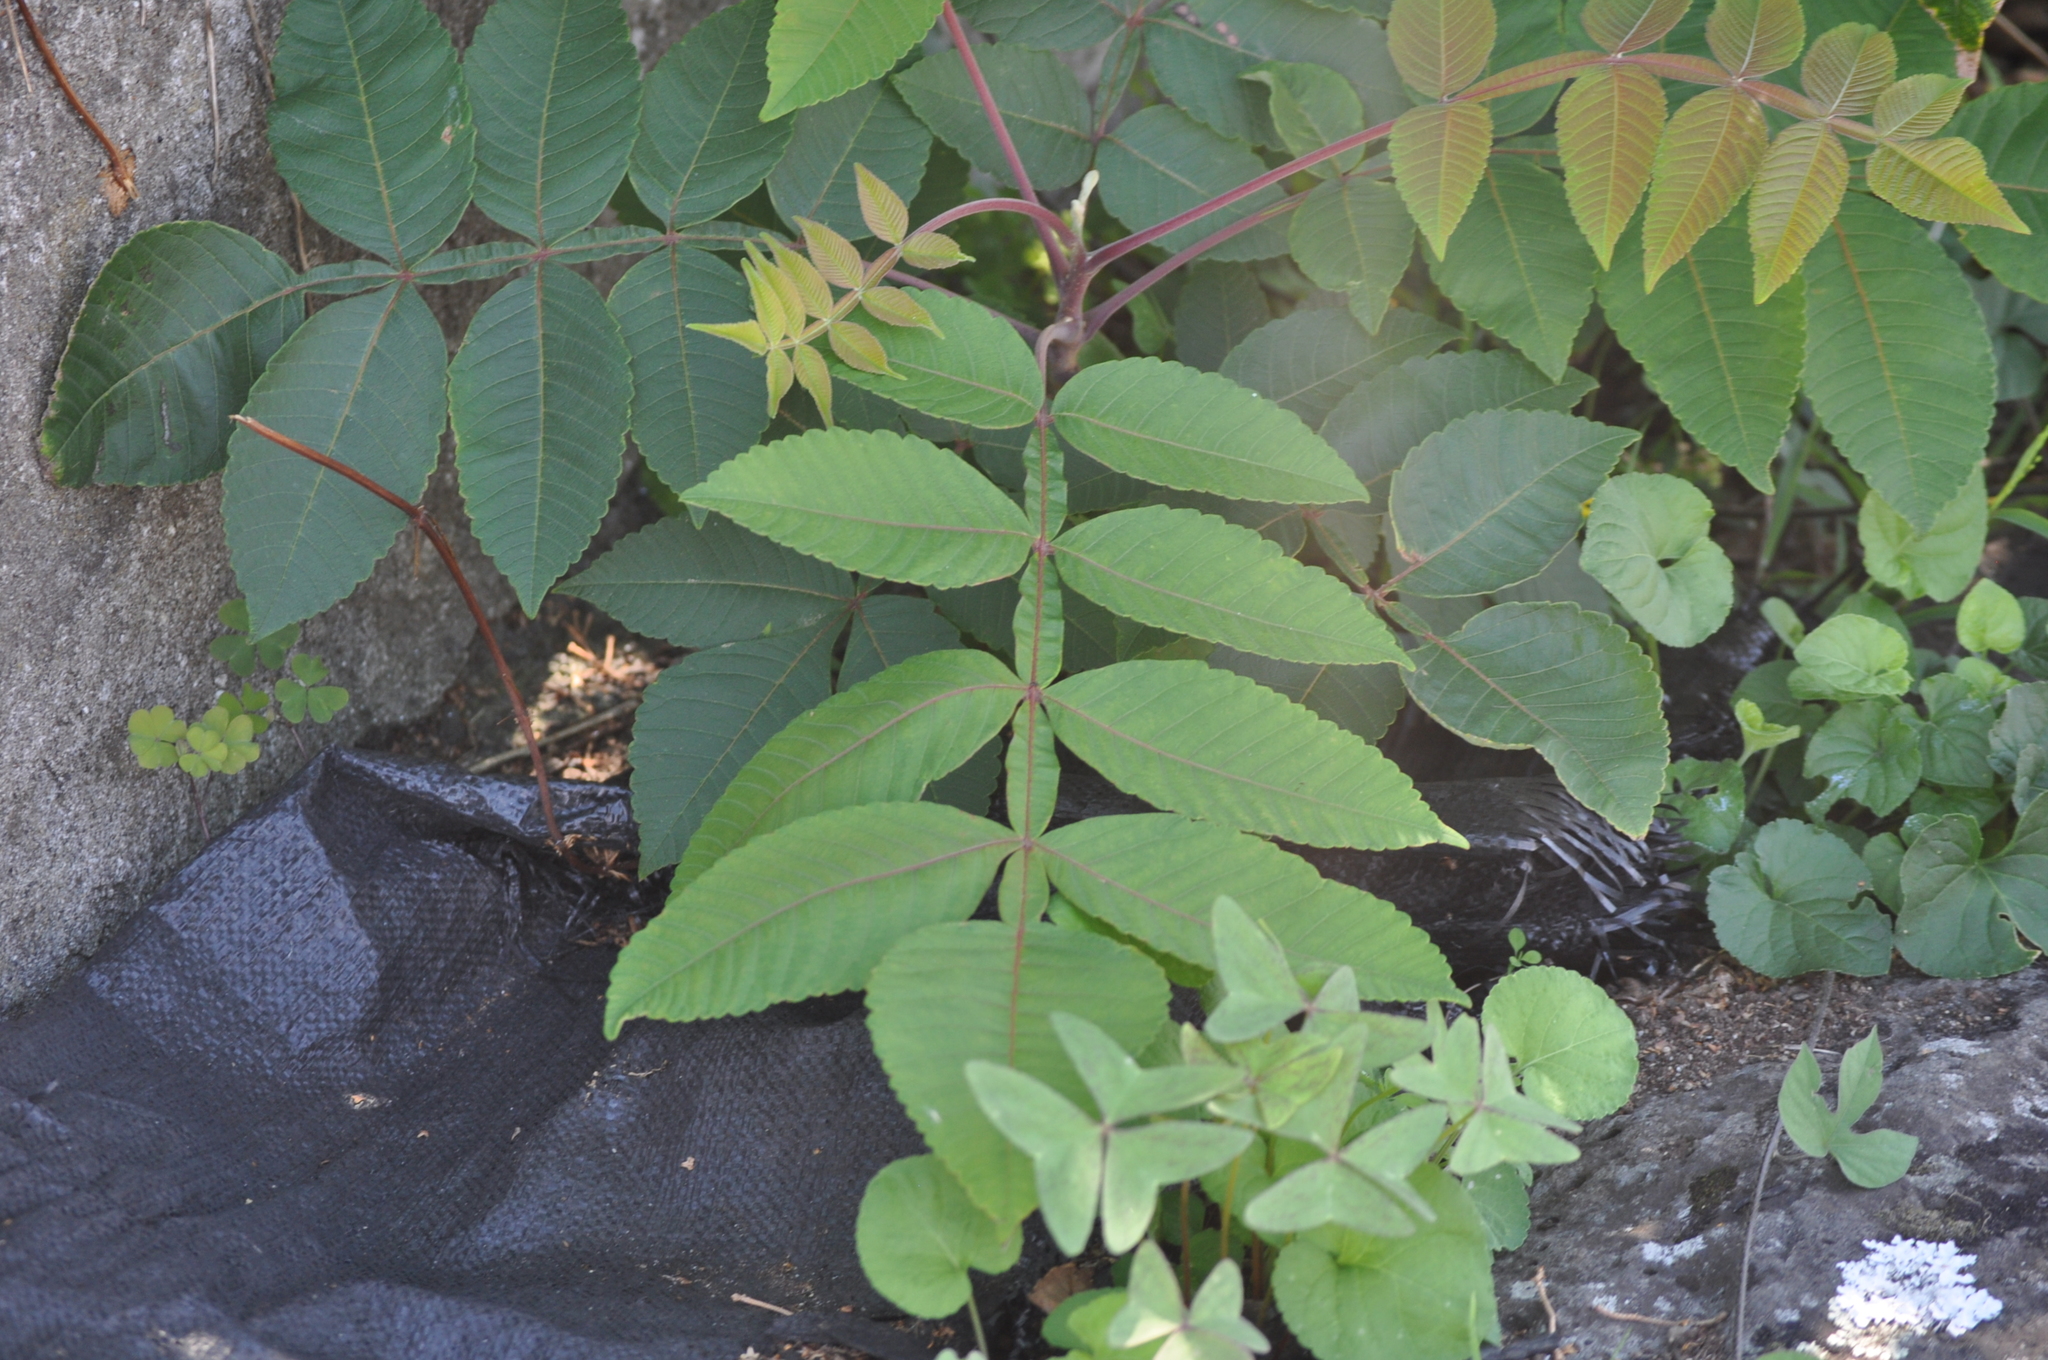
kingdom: Plantae
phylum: Tracheophyta
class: Magnoliopsida
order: Sapindales
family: Anacardiaceae
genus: Rhus
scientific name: Rhus chinensis
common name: Chinese gall
